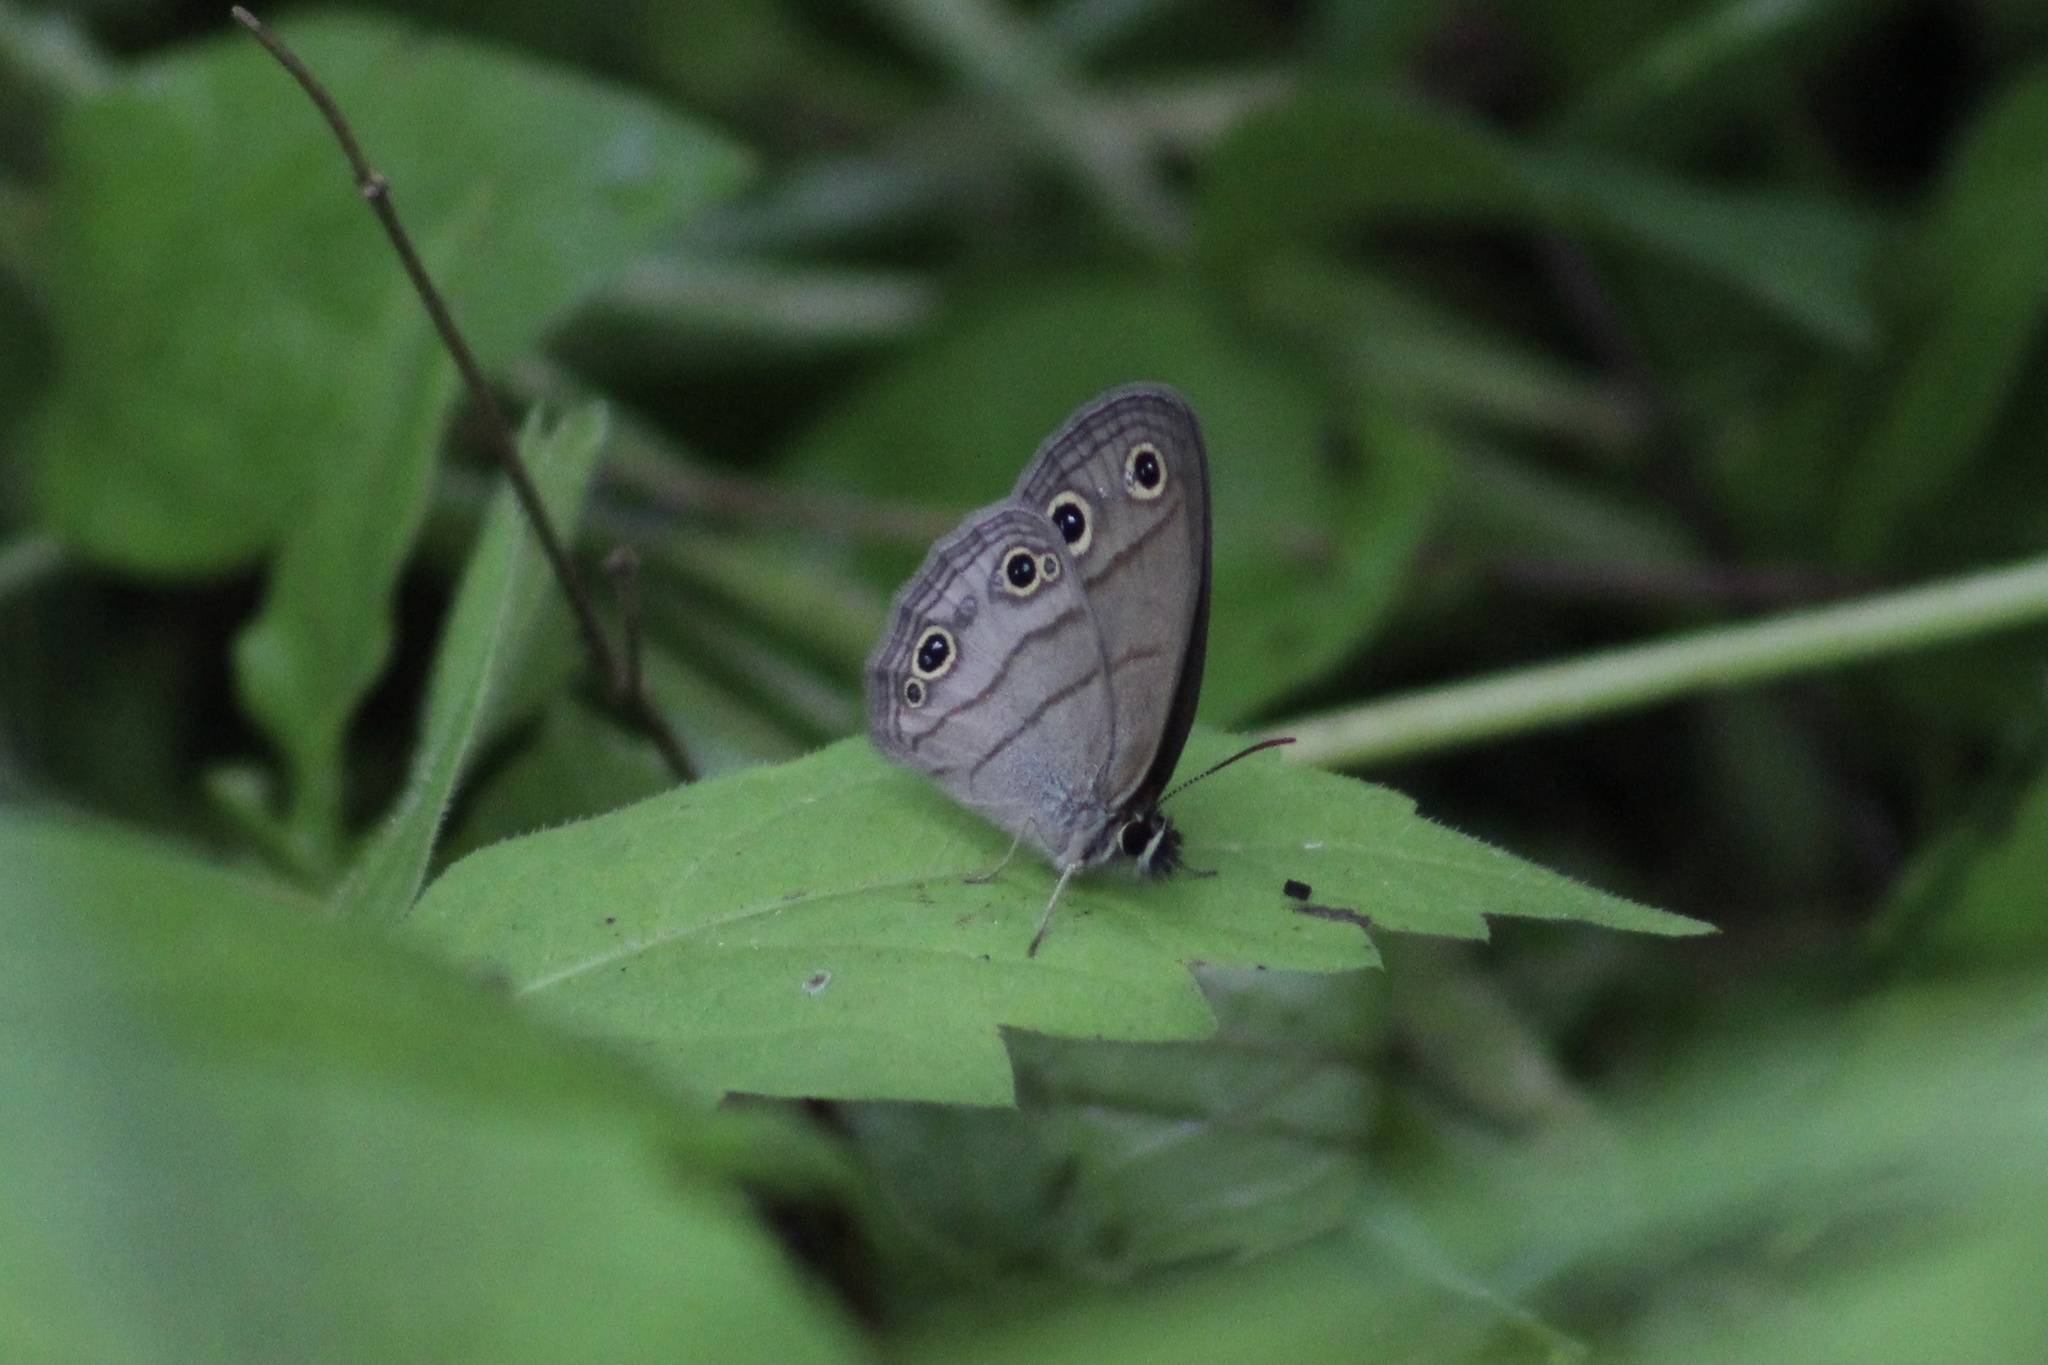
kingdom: Animalia
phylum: Arthropoda
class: Insecta
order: Lepidoptera
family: Nymphalidae
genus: Euptychia
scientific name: Euptychia cymela
